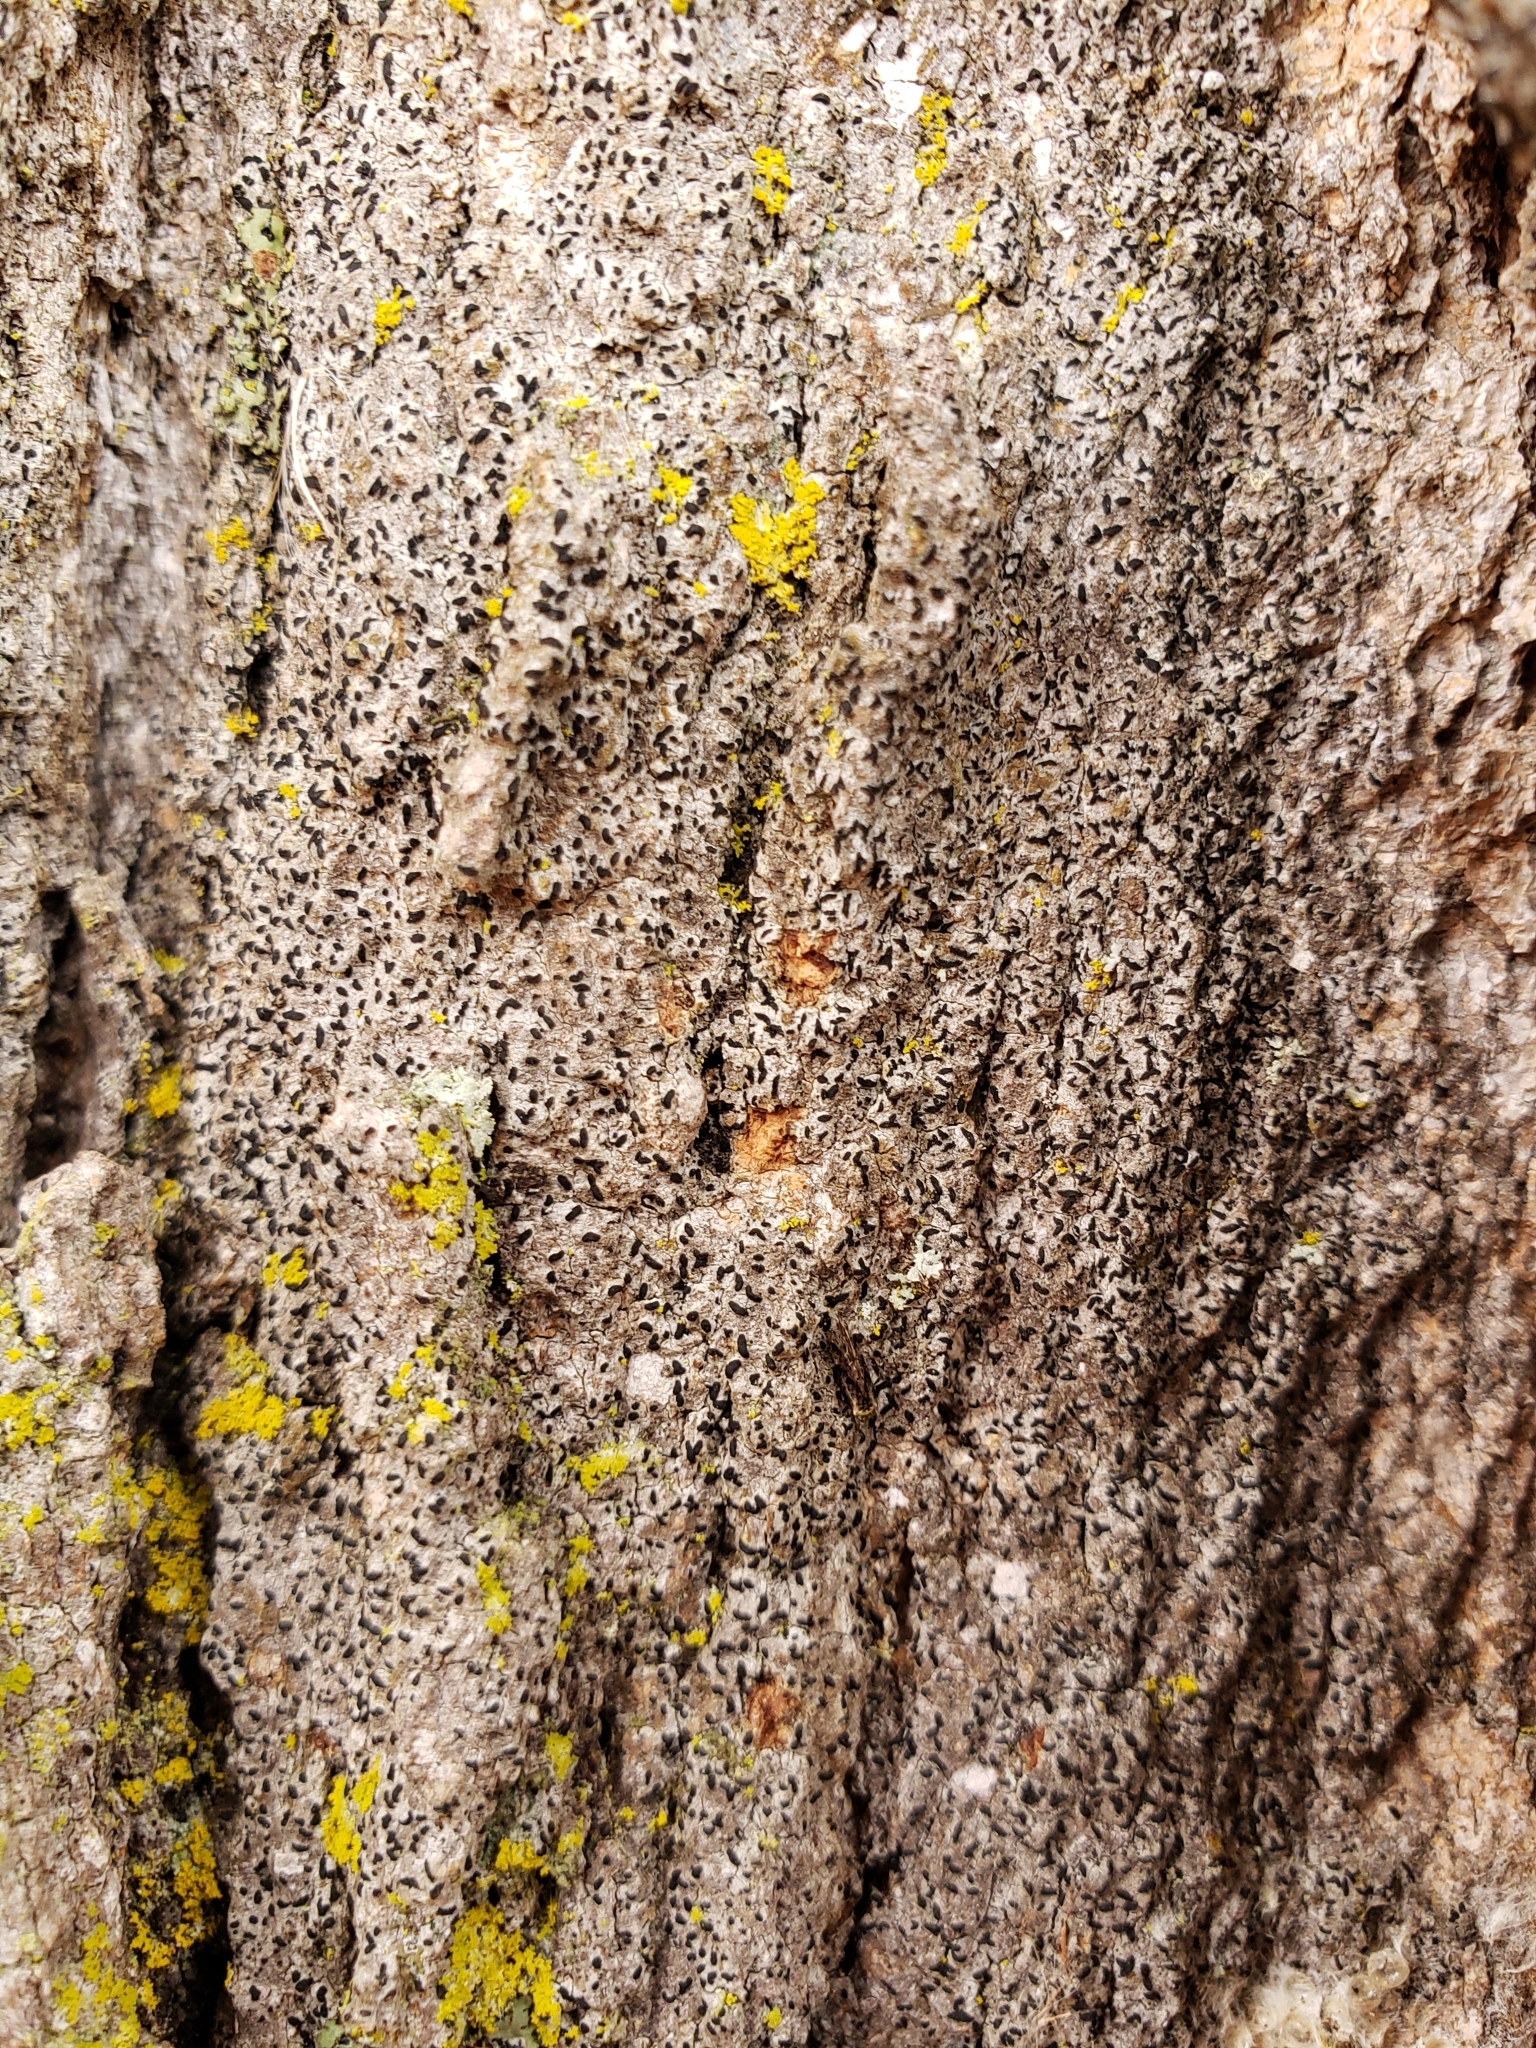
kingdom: Fungi
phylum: Ascomycota
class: Arthoniomycetes
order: Arthoniales
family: Lecanographaceae
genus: Alyxoria
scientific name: Alyxoria varia
